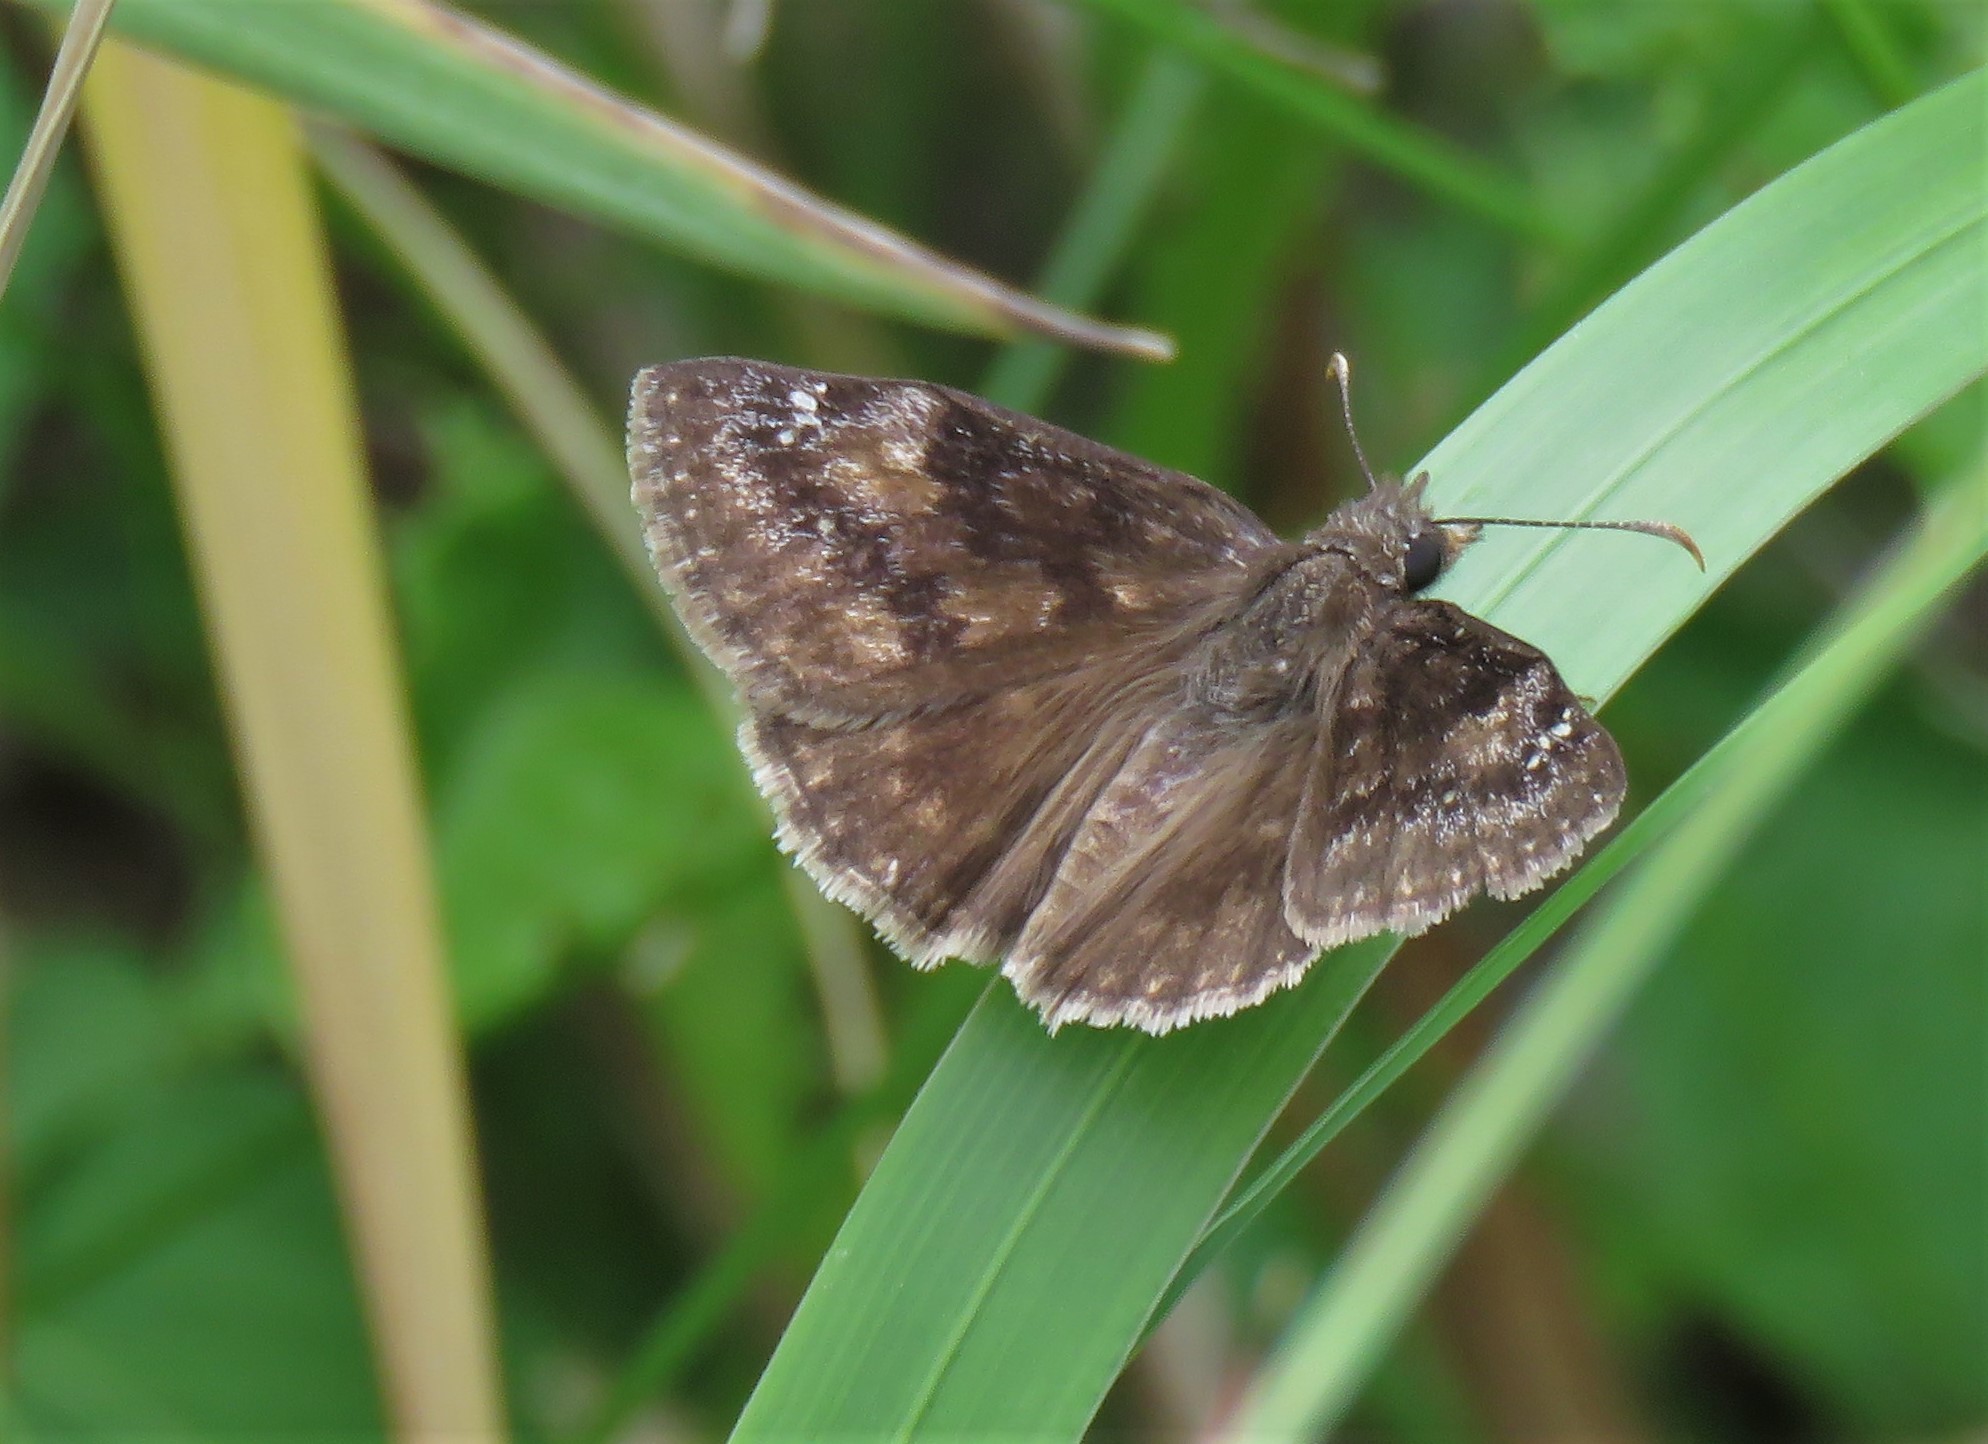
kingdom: Animalia
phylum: Arthropoda
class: Insecta
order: Lepidoptera
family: Hesperiidae
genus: Erynnis
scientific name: Erynnis baptisiae
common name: Wild indigo duskywing
